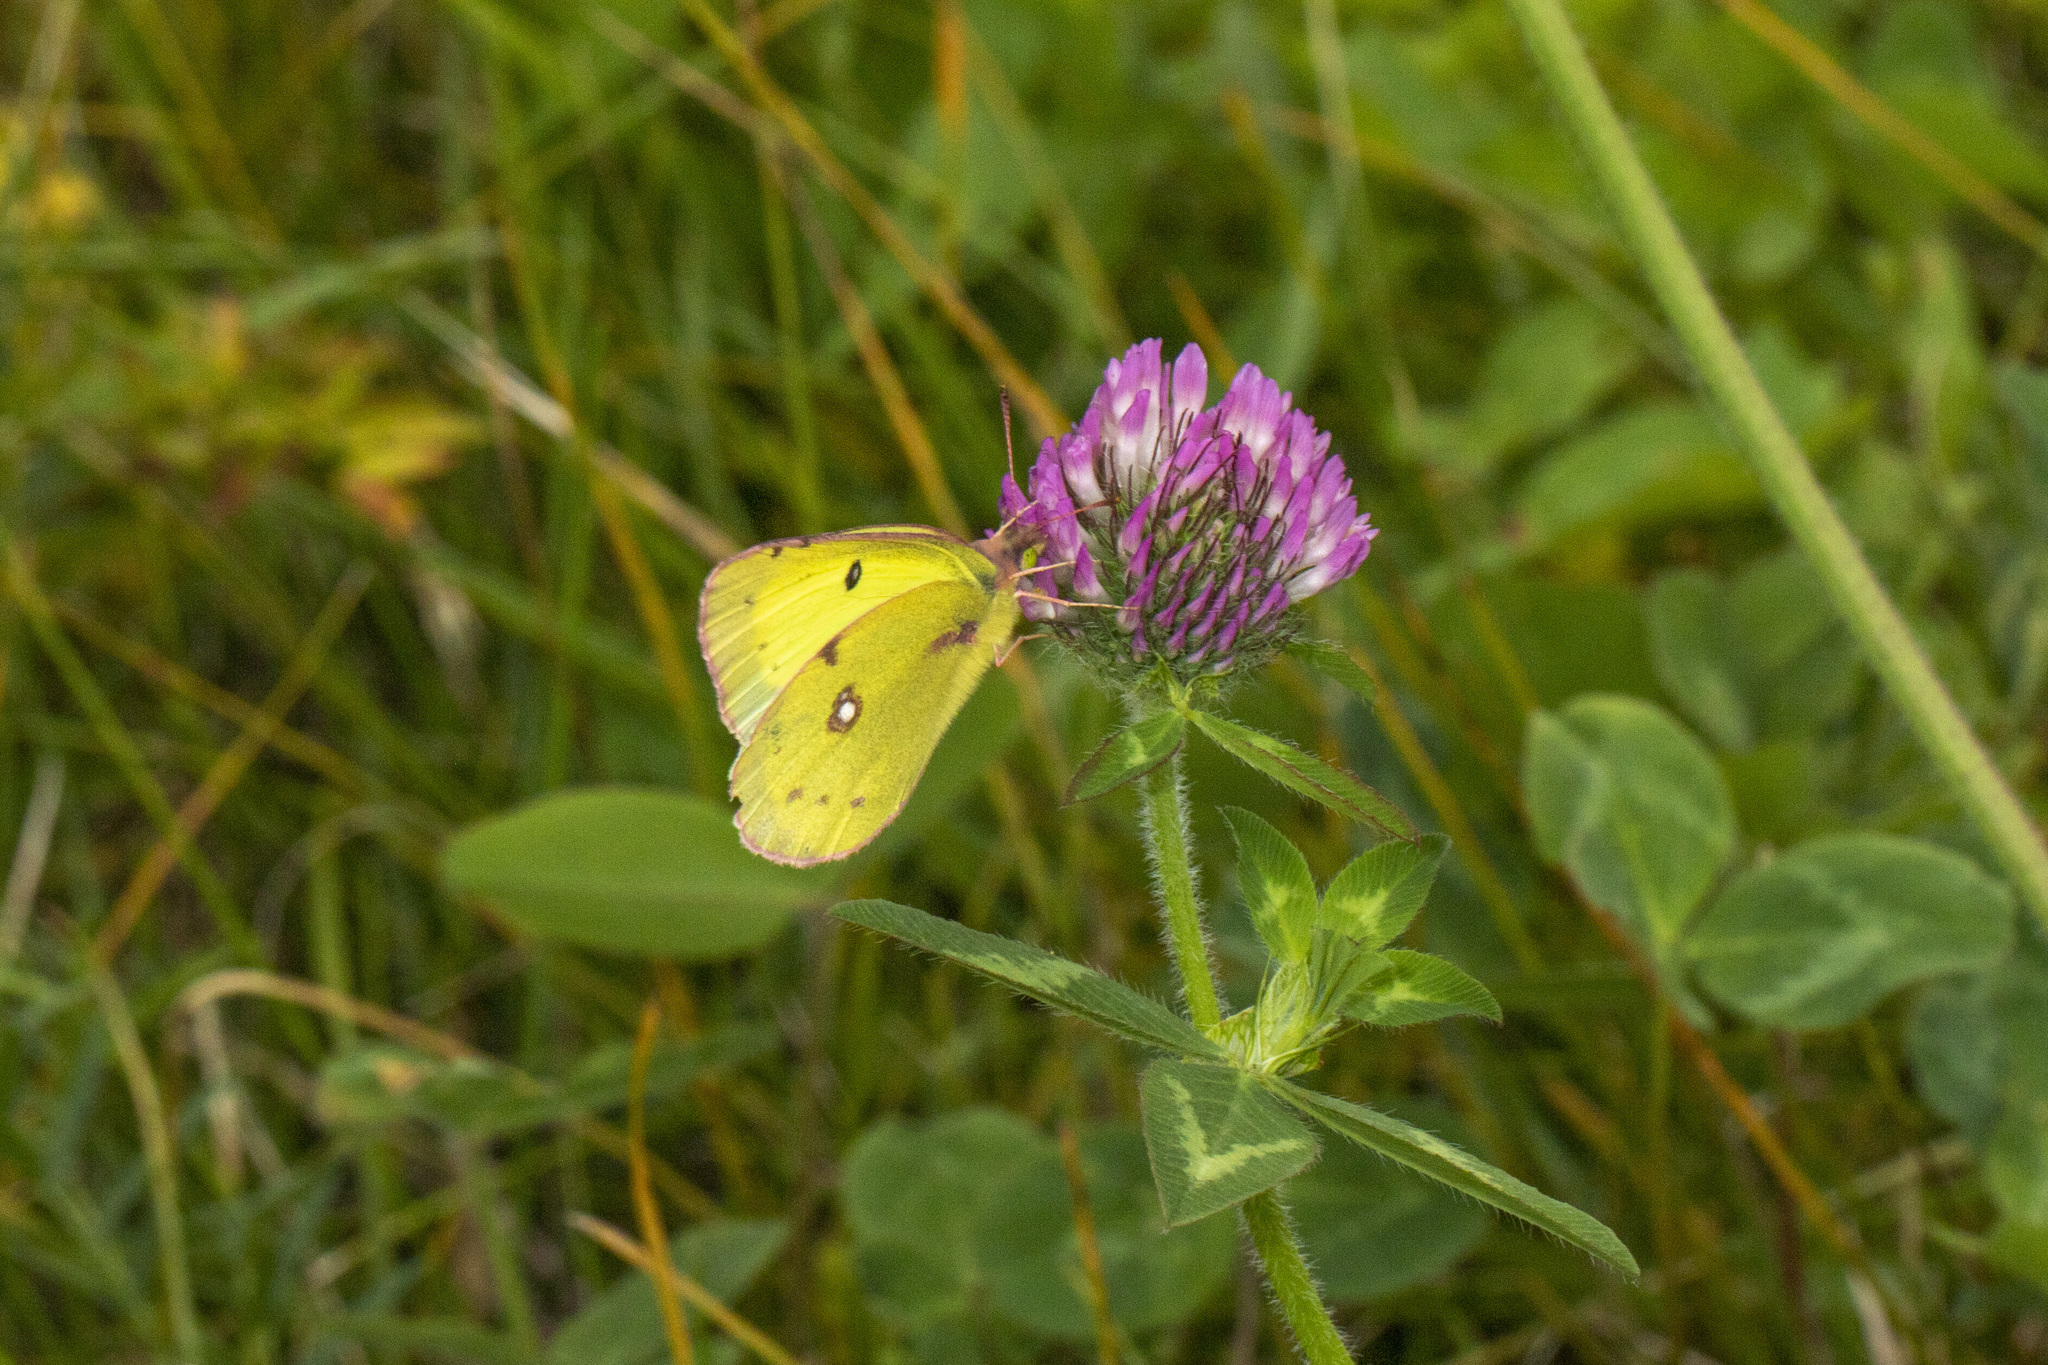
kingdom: Animalia
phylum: Arthropoda
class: Insecta
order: Lepidoptera
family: Pieridae
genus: Colias
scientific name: Colias philodice
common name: Clouded sulphur
